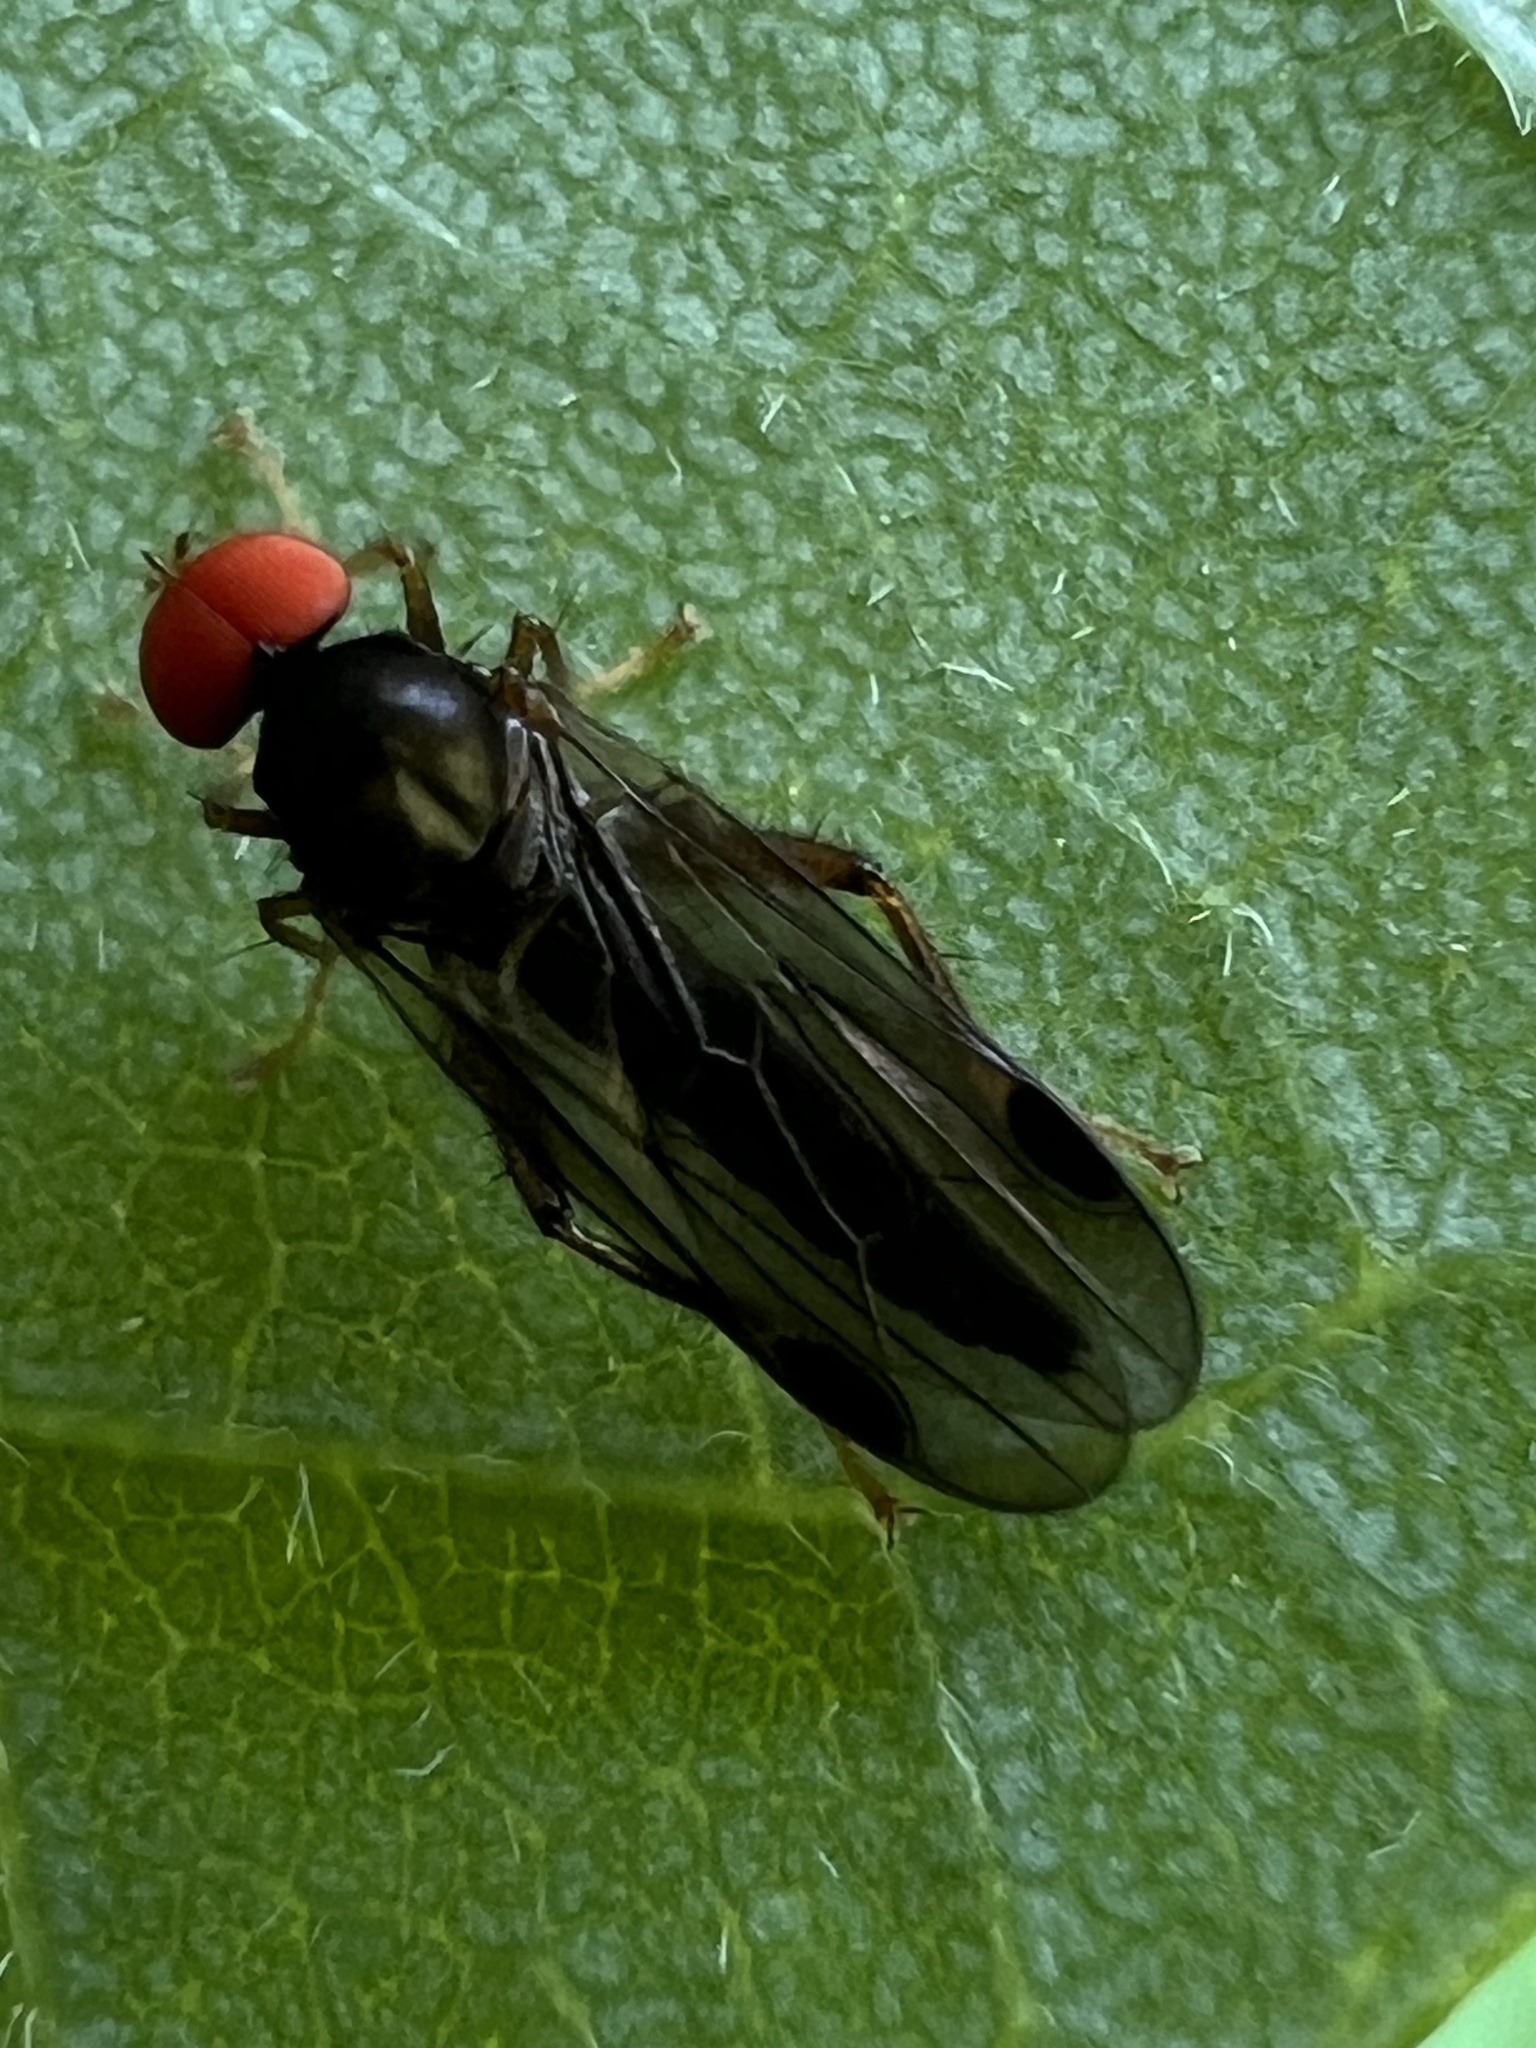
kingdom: Animalia
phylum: Arthropoda
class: Insecta
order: Diptera
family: Hybotidae
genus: Syneches
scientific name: Syneches thoracicus
